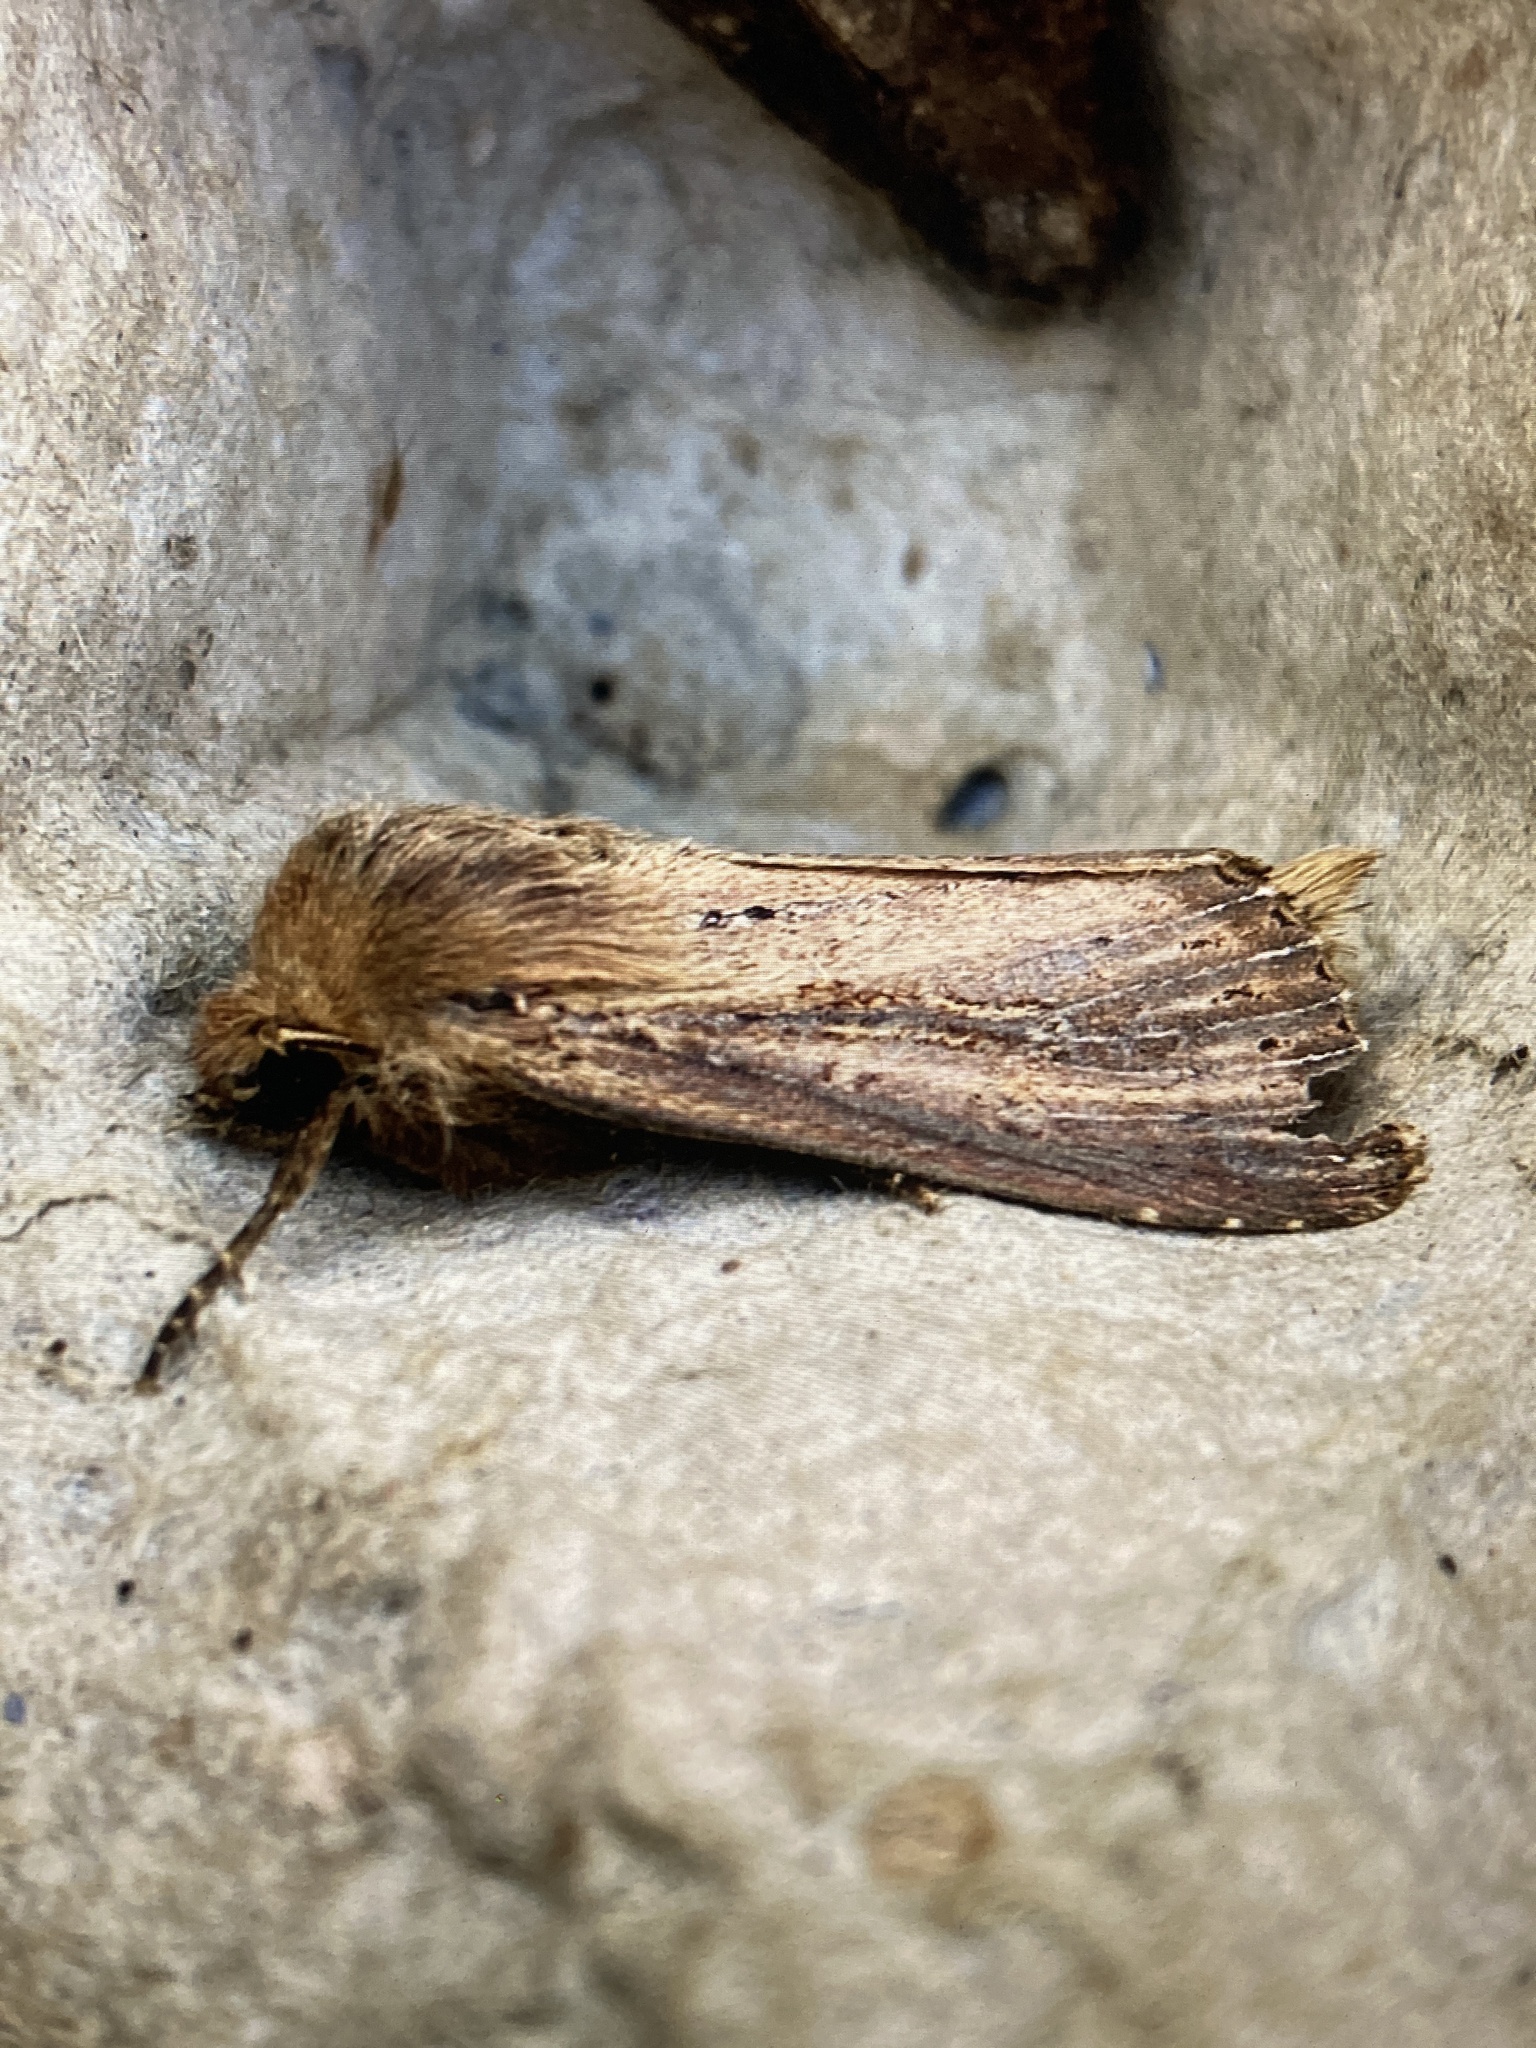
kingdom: Animalia
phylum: Arthropoda
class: Insecta
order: Lepidoptera
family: Noctuidae
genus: Nonagria
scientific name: Nonagria typhae
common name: Bulrush wainscot
